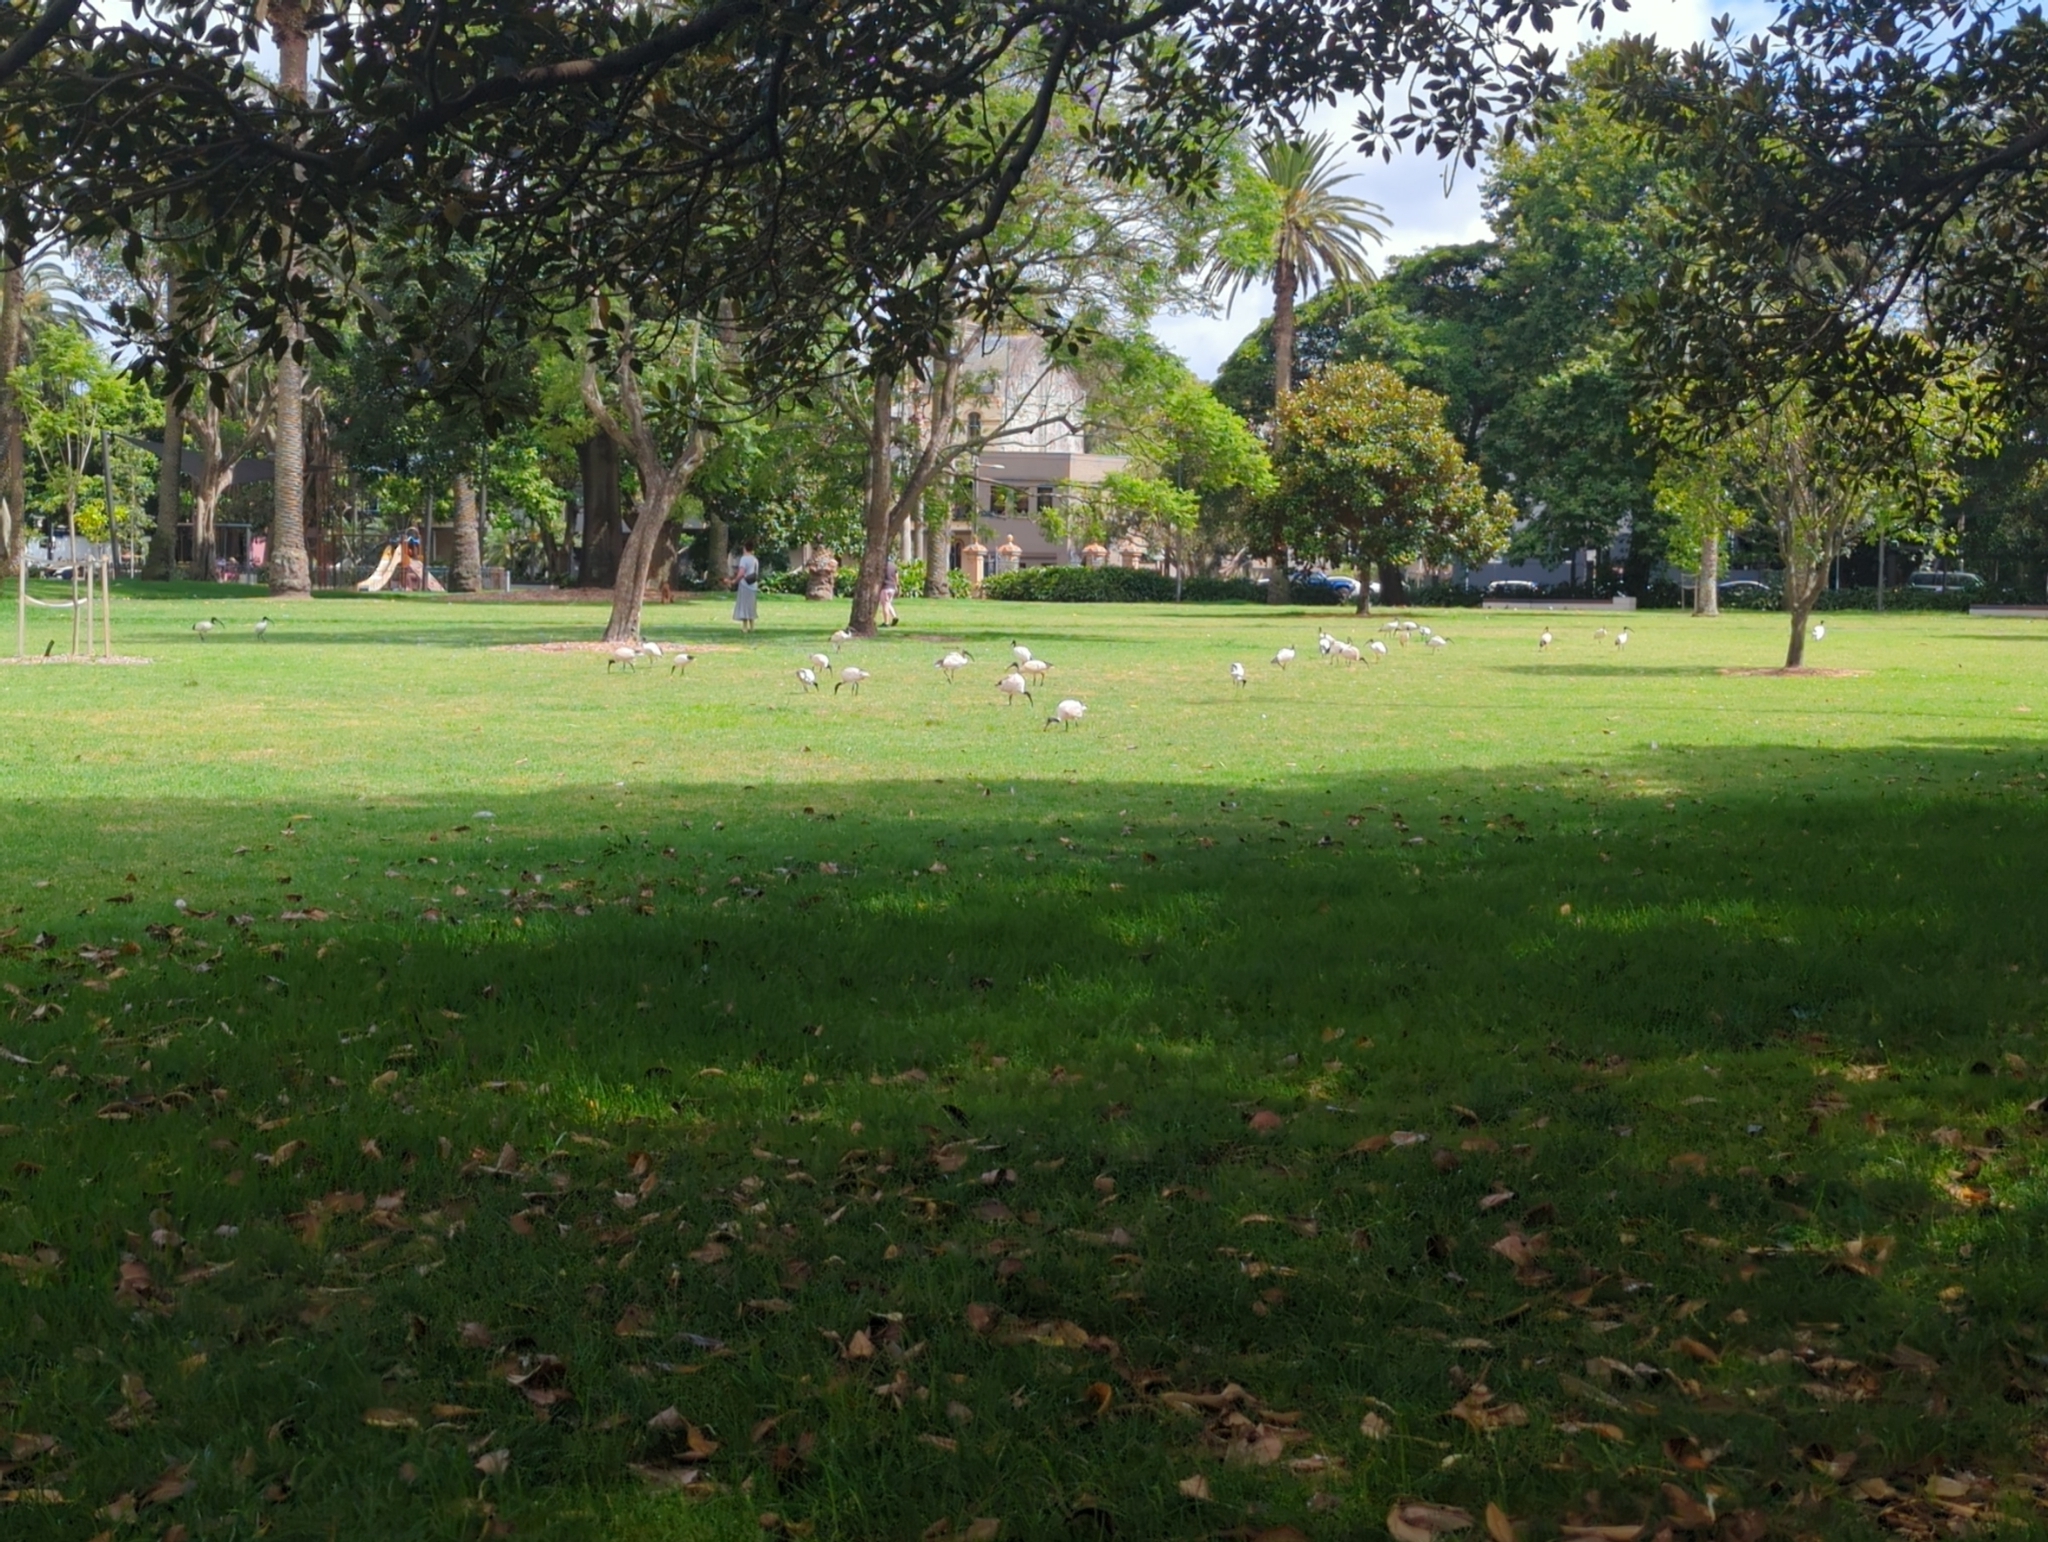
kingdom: Animalia
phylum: Chordata
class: Aves
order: Pelecaniformes
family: Threskiornithidae
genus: Threskiornis
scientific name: Threskiornis molucca
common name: Australian white ibis
